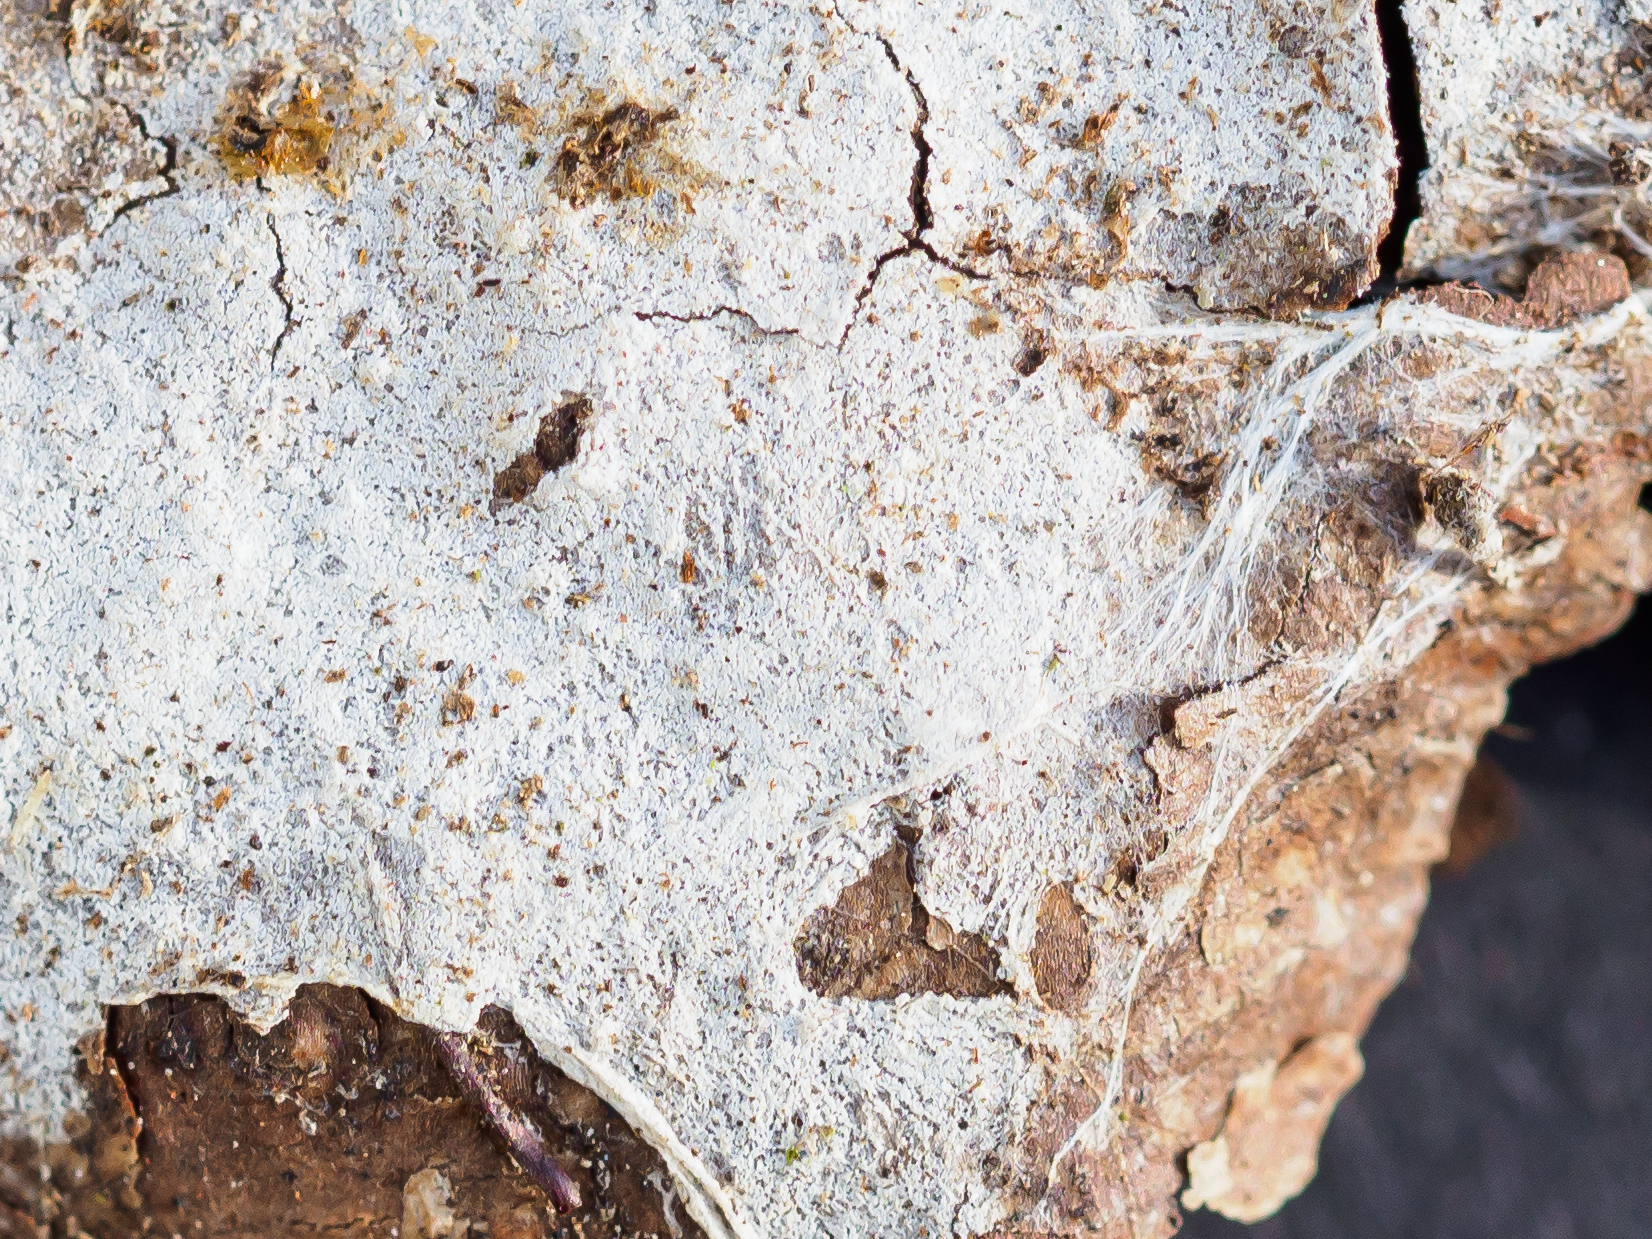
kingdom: Fungi
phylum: Basidiomycota
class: Agaricomycetes
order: Atheliales
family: Atheliaceae
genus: Amphinema
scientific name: Amphinema byssoides
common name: Cratered duster
